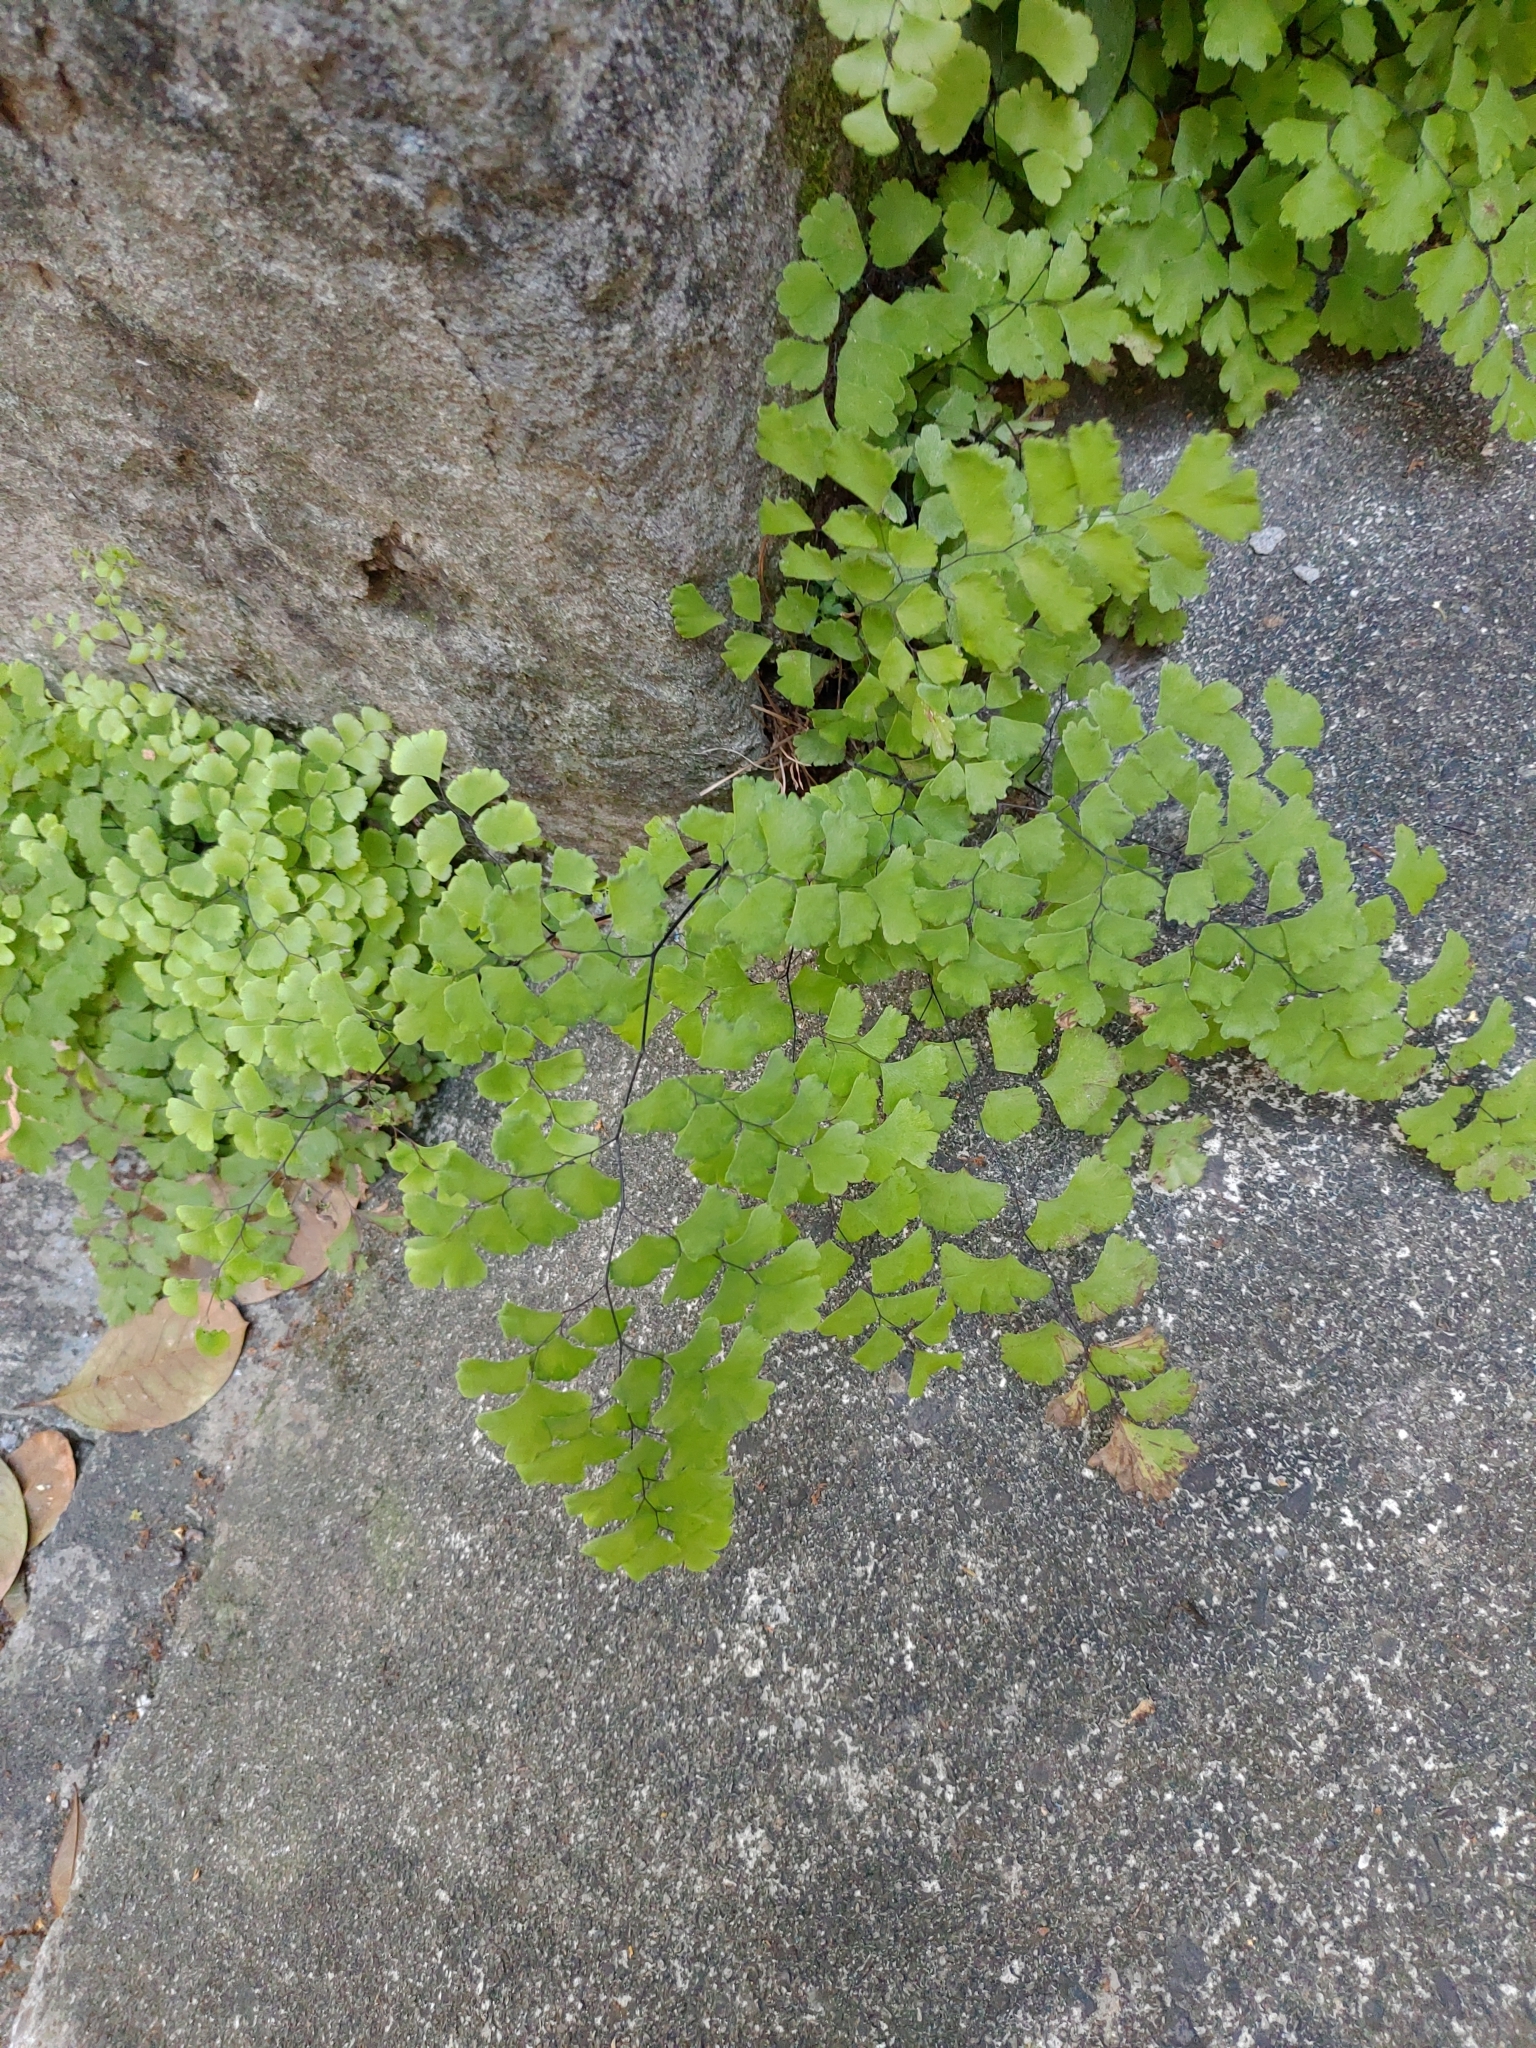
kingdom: Plantae
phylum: Tracheophyta
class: Polypodiopsida
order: Polypodiales
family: Pteridaceae
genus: Adiantum
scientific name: Adiantum capillus-veneris
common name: Maidenhair fern
